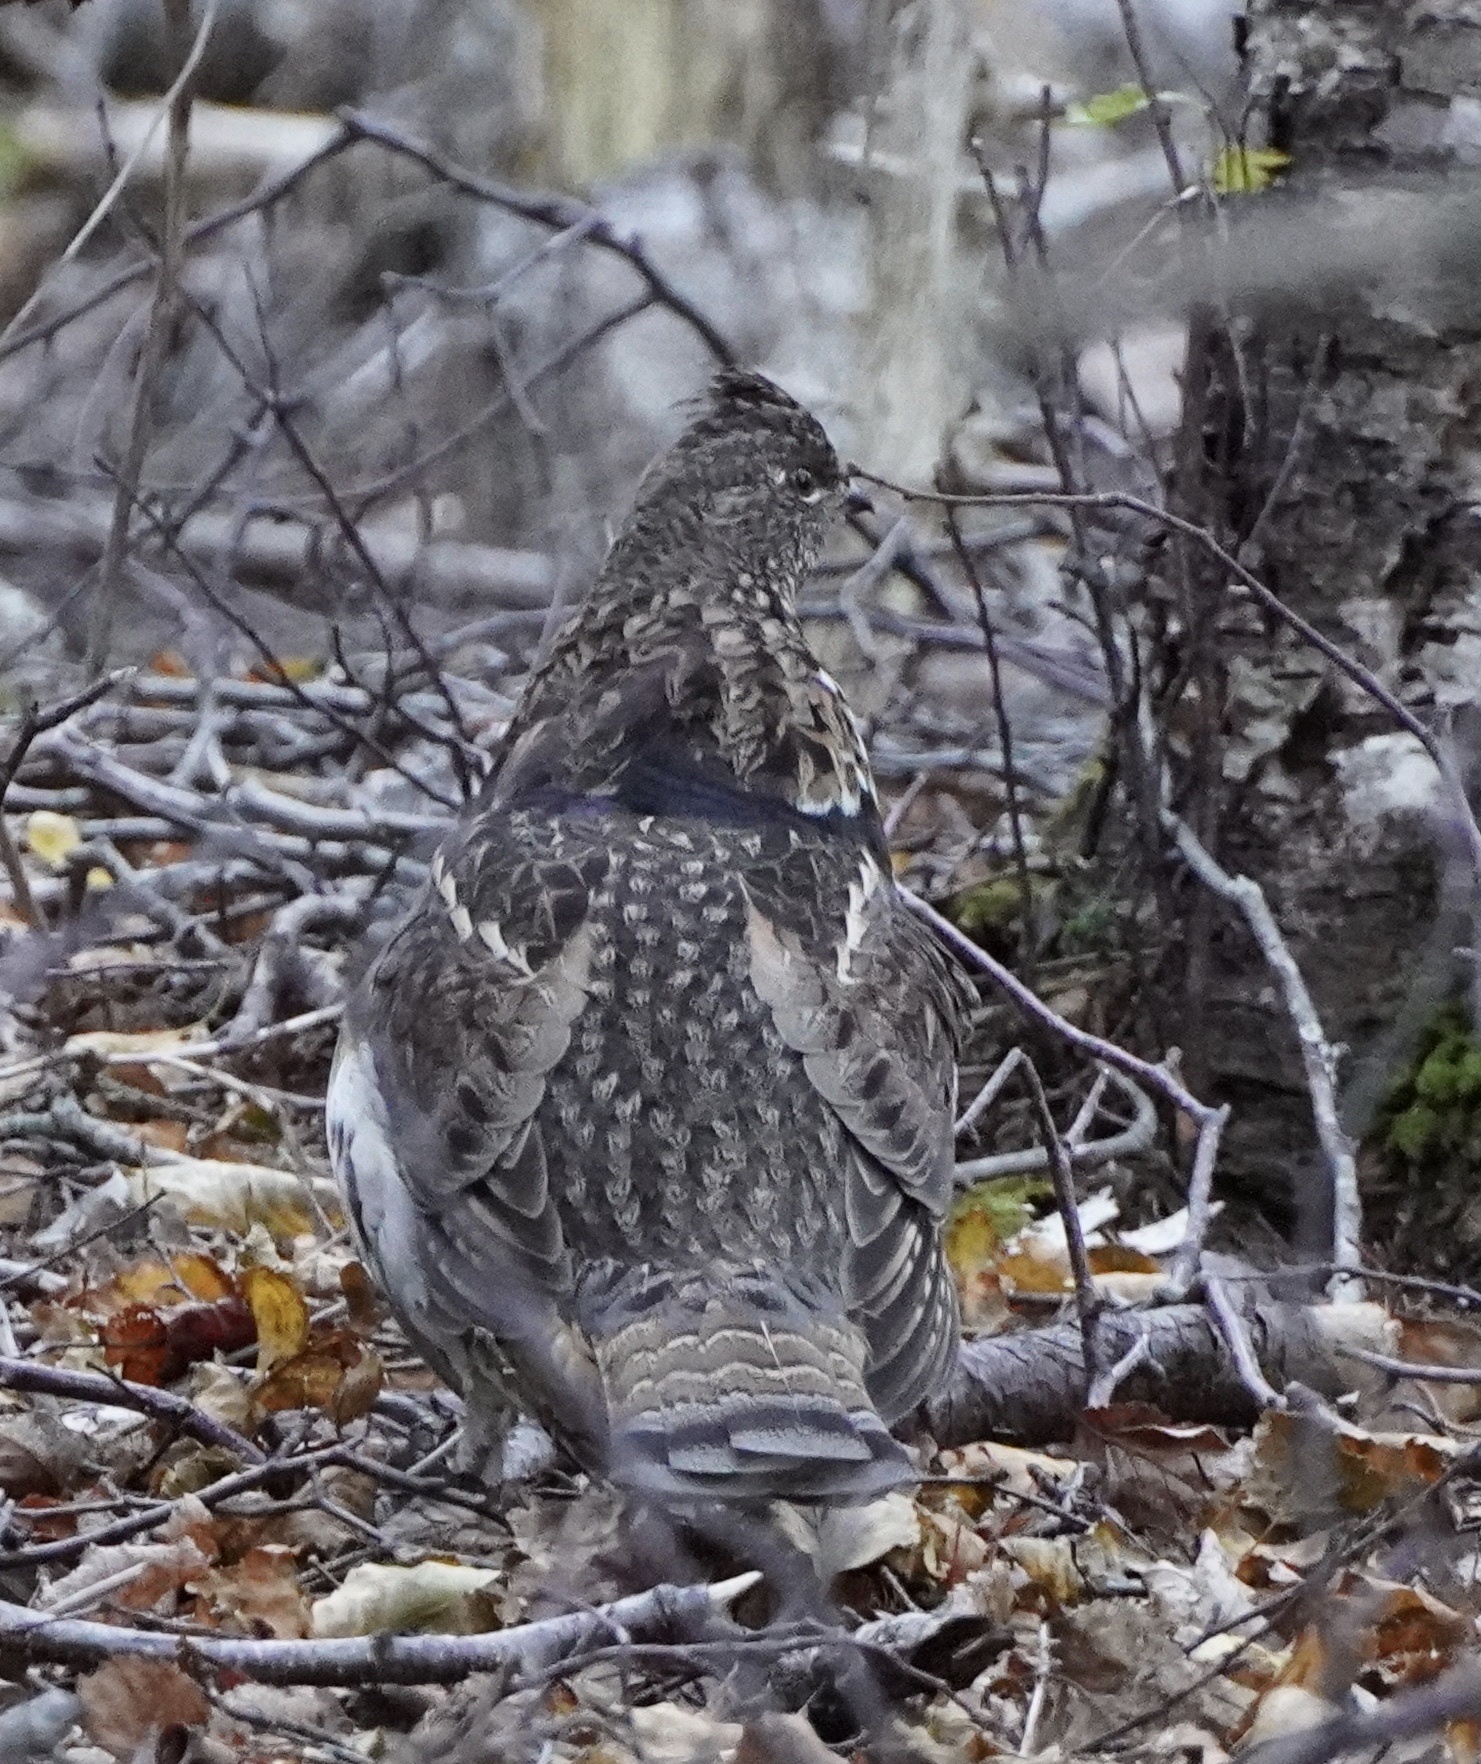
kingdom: Animalia
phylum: Chordata
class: Aves
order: Galliformes
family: Phasianidae
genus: Bonasa
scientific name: Bonasa umbellus
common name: Ruffed grouse
